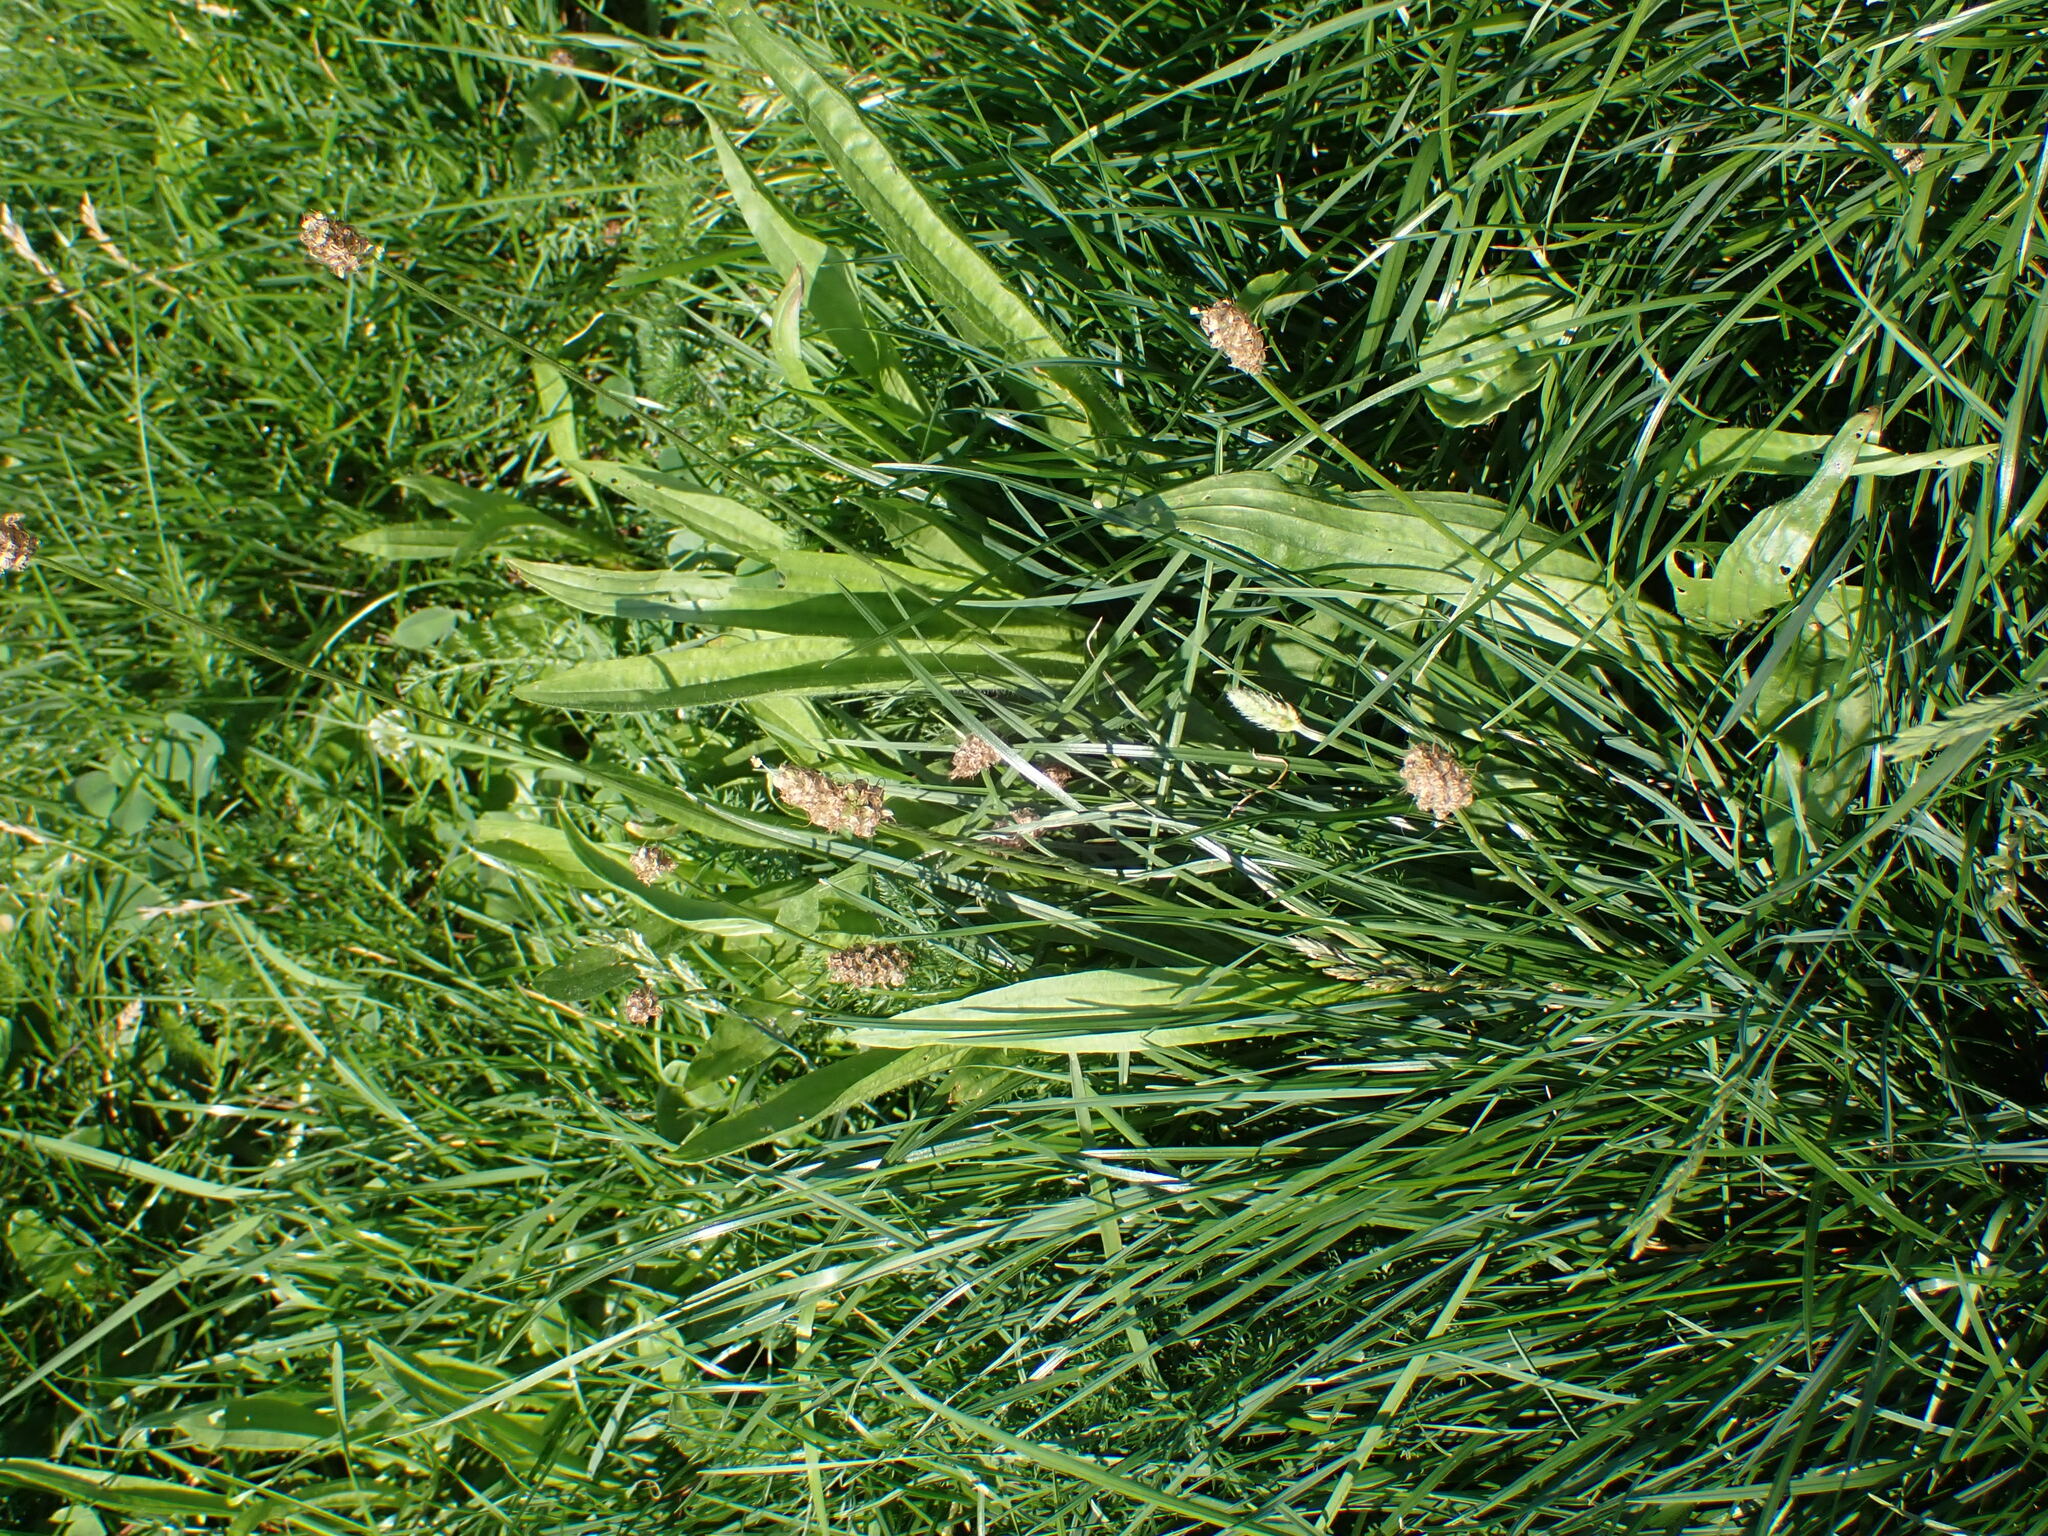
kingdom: Plantae
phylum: Tracheophyta
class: Magnoliopsida
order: Lamiales
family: Plantaginaceae
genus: Plantago
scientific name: Plantago lanceolata
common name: Ribwort plantain
